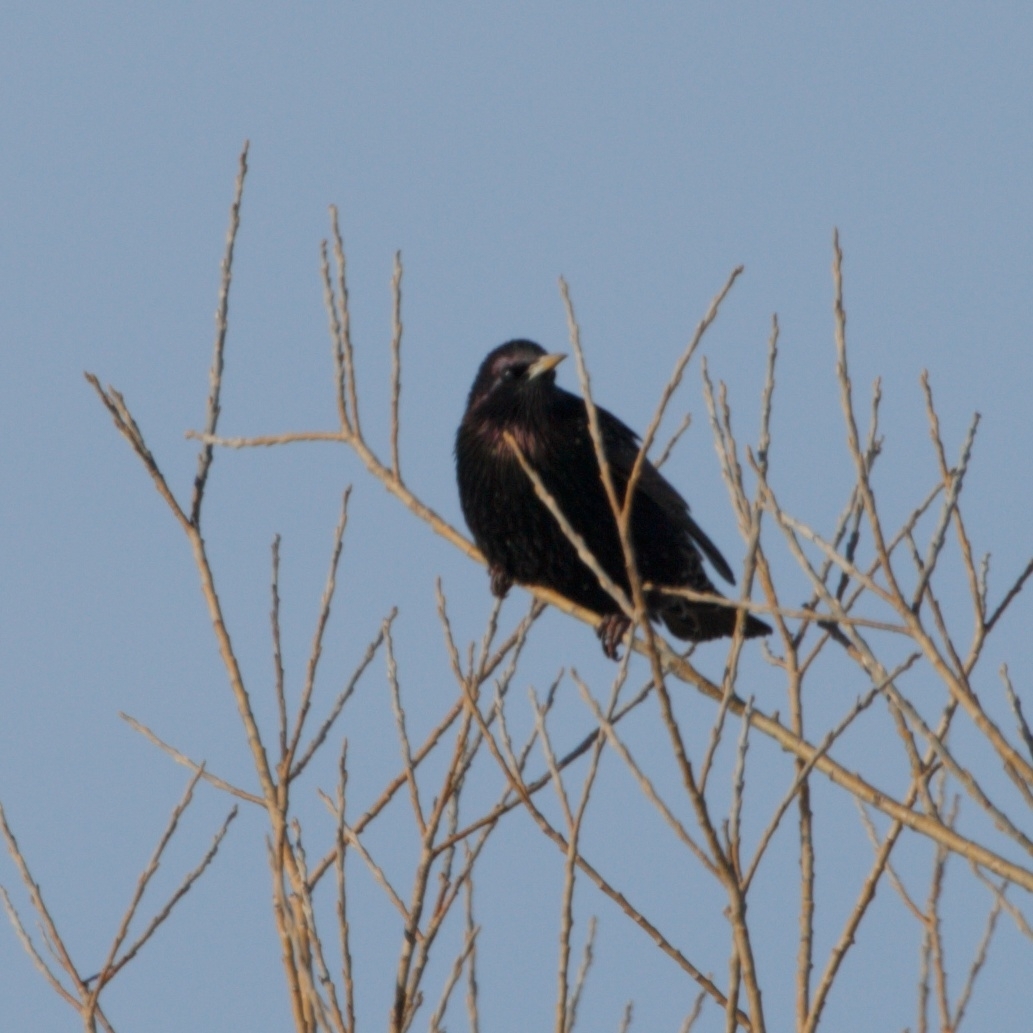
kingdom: Animalia
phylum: Chordata
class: Aves
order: Passeriformes
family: Sturnidae
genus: Sturnus
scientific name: Sturnus vulgaris
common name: Common starling
